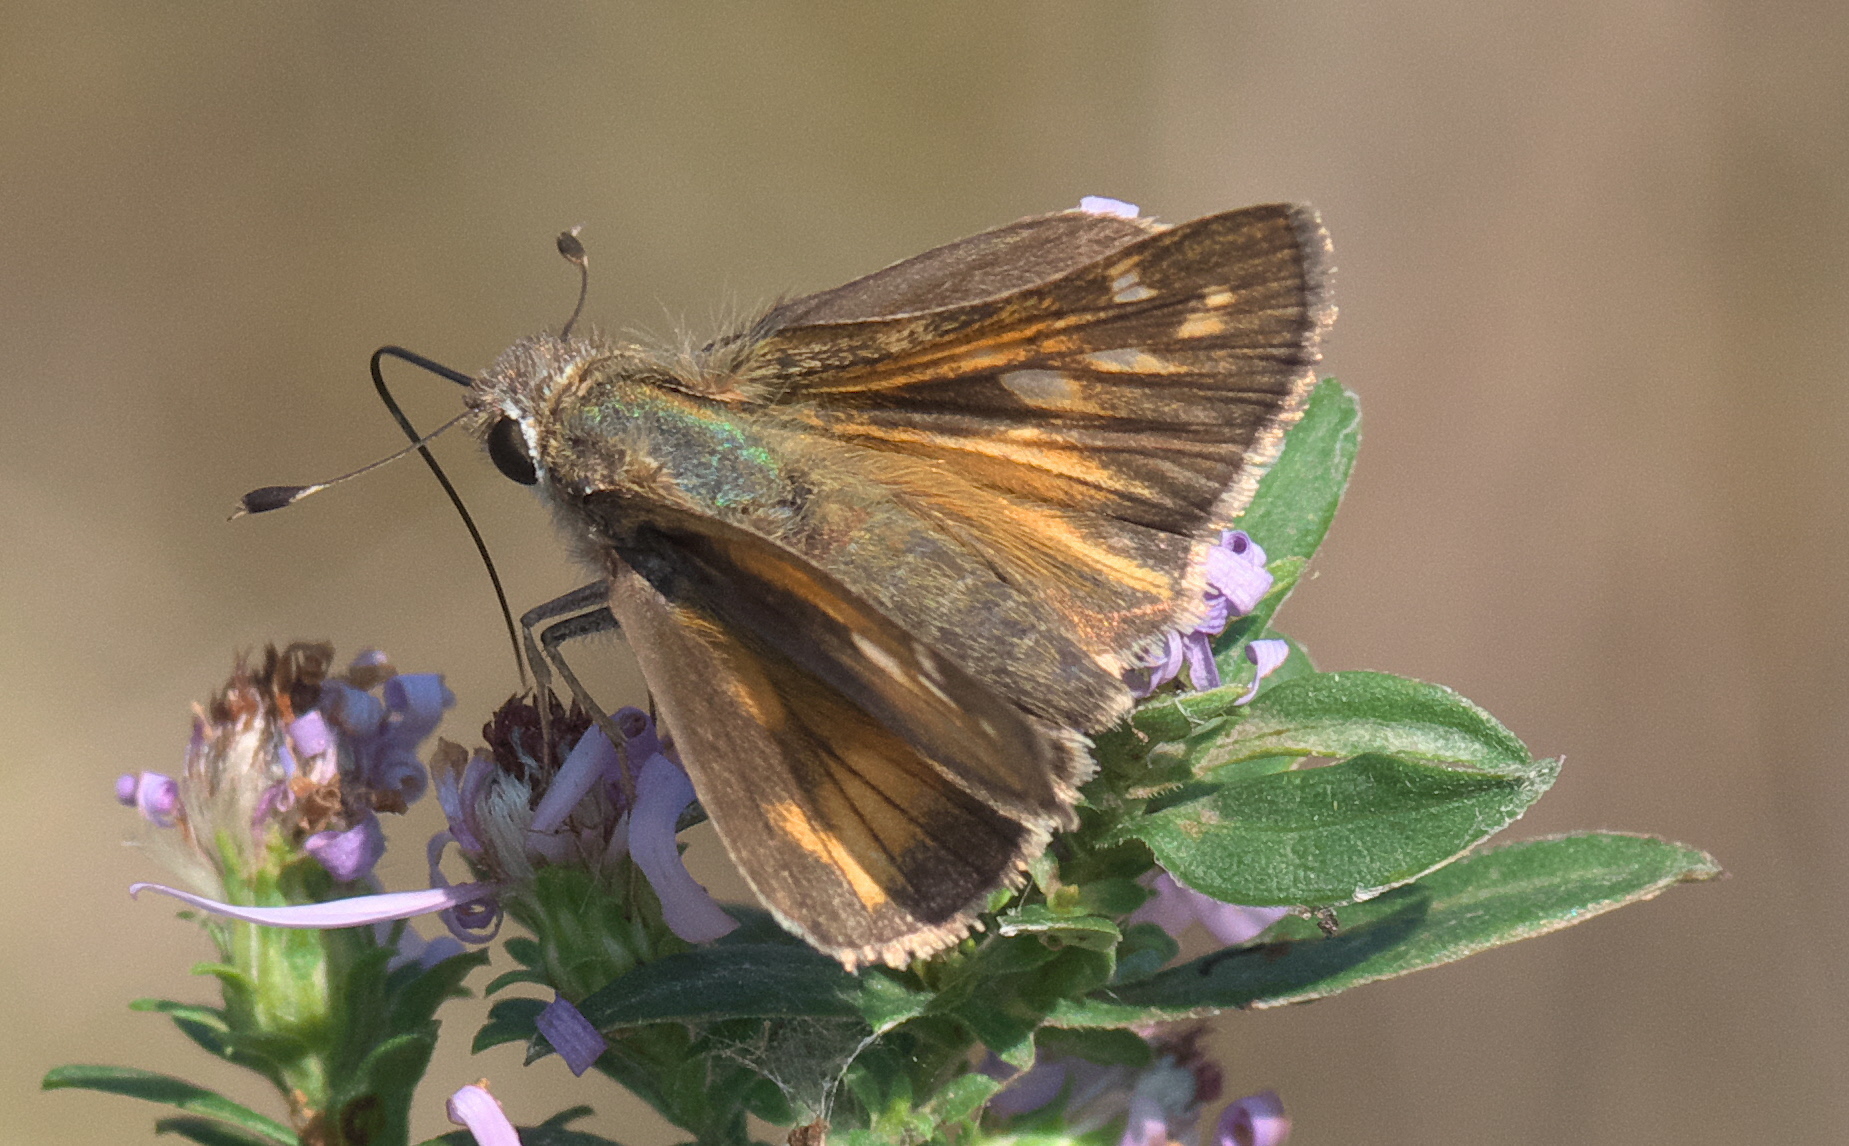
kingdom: Animalia
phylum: Arthropoda
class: Insecta
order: Lepidoptera
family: Hesperiidae
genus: Atalopedes
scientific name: Atalopedes
